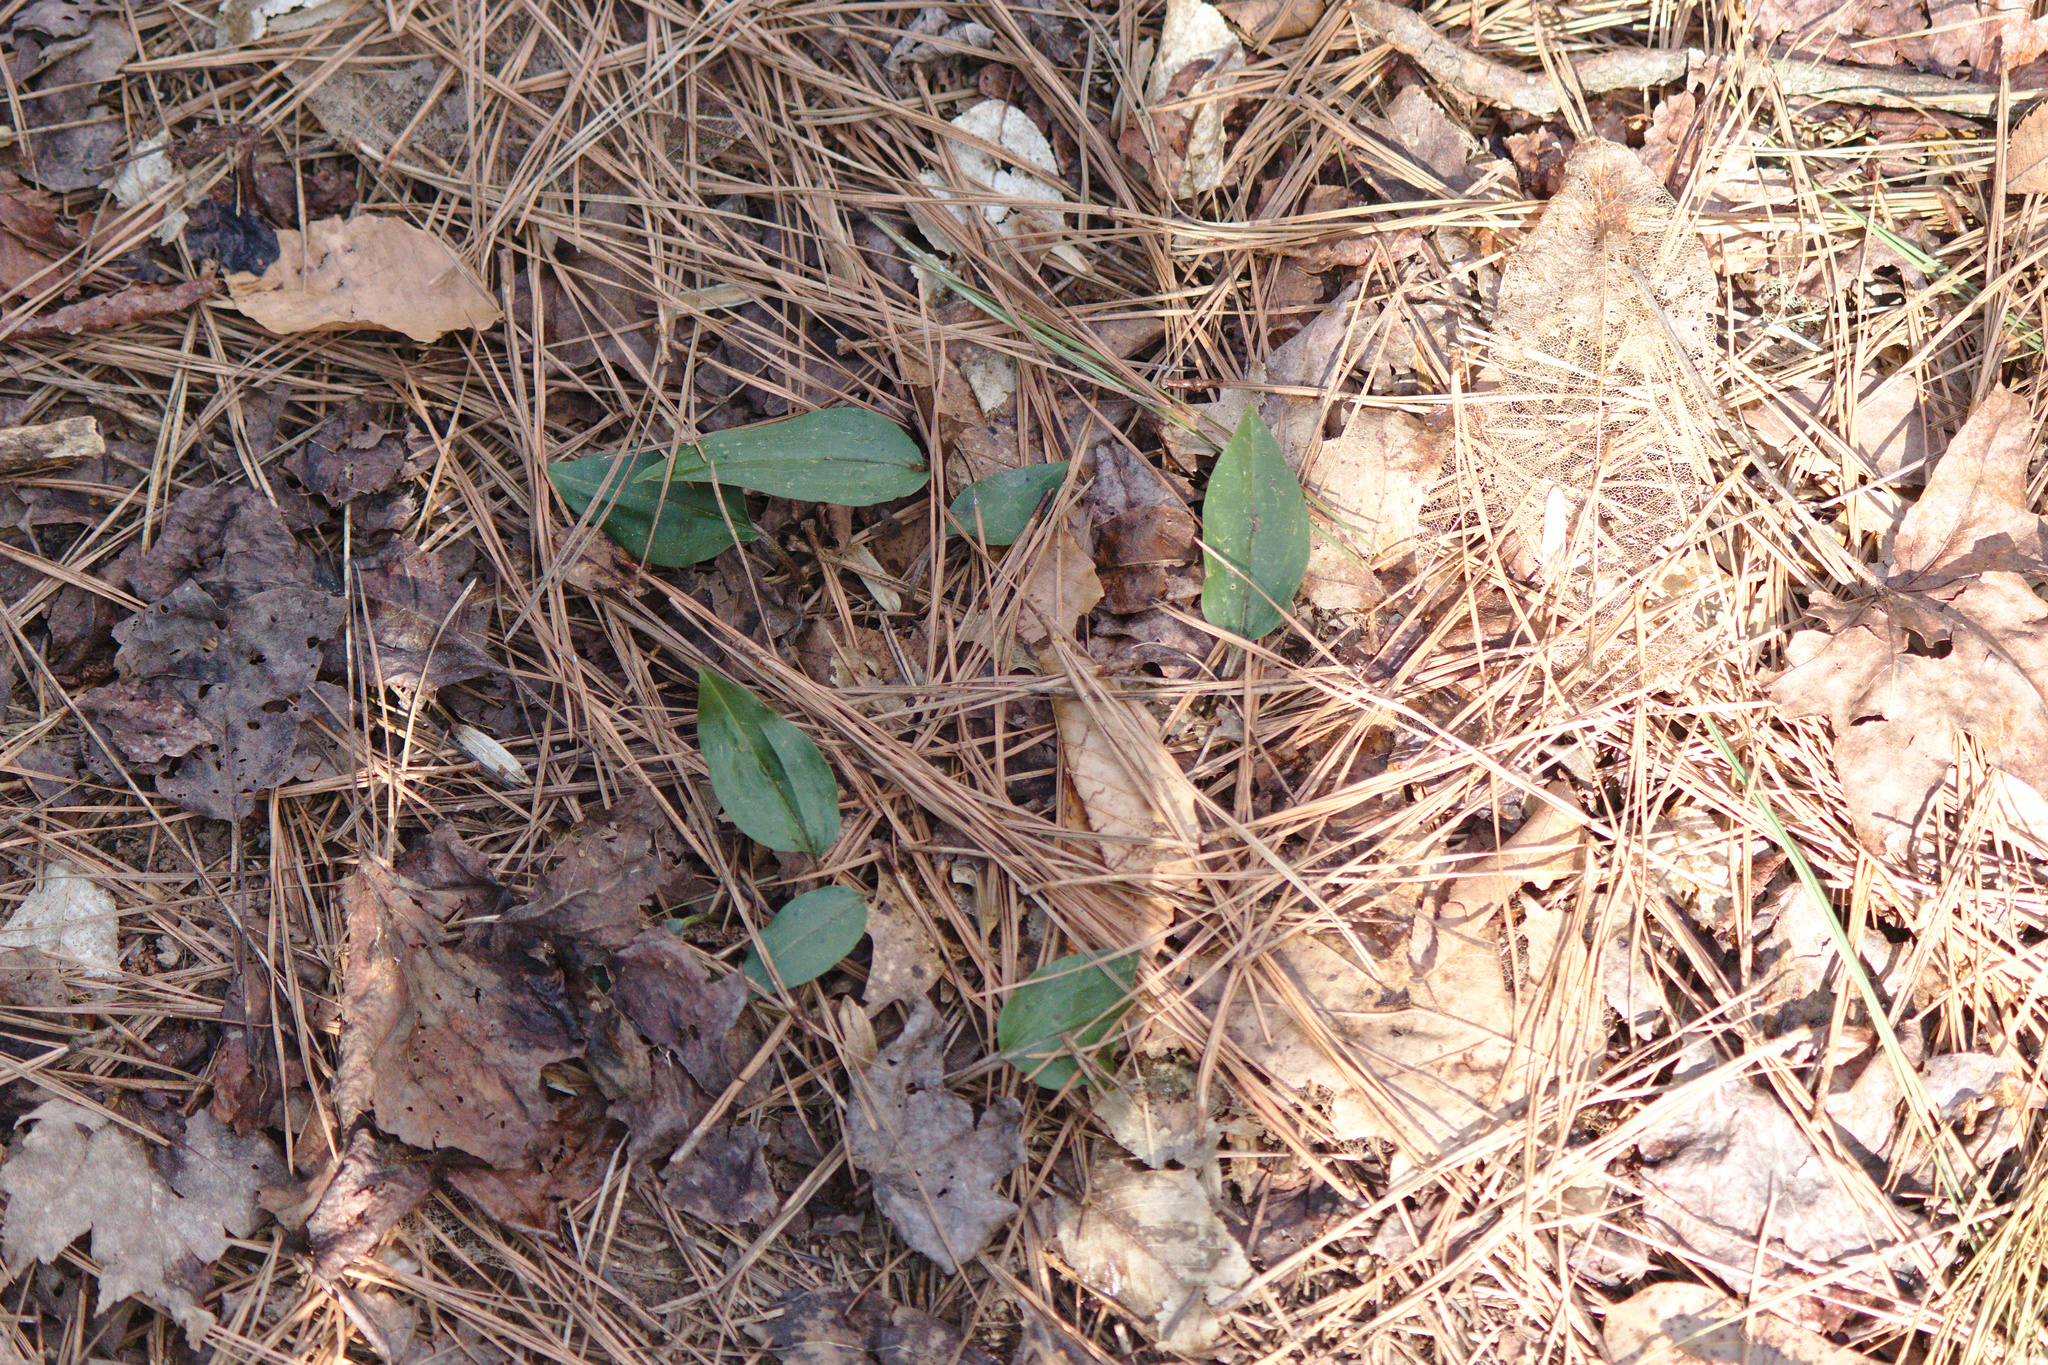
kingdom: Plantae
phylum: Tracheophyta
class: Liliopsida
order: Asparagales
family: Orchidaceae
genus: Tipularia
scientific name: Tipularia discolor
